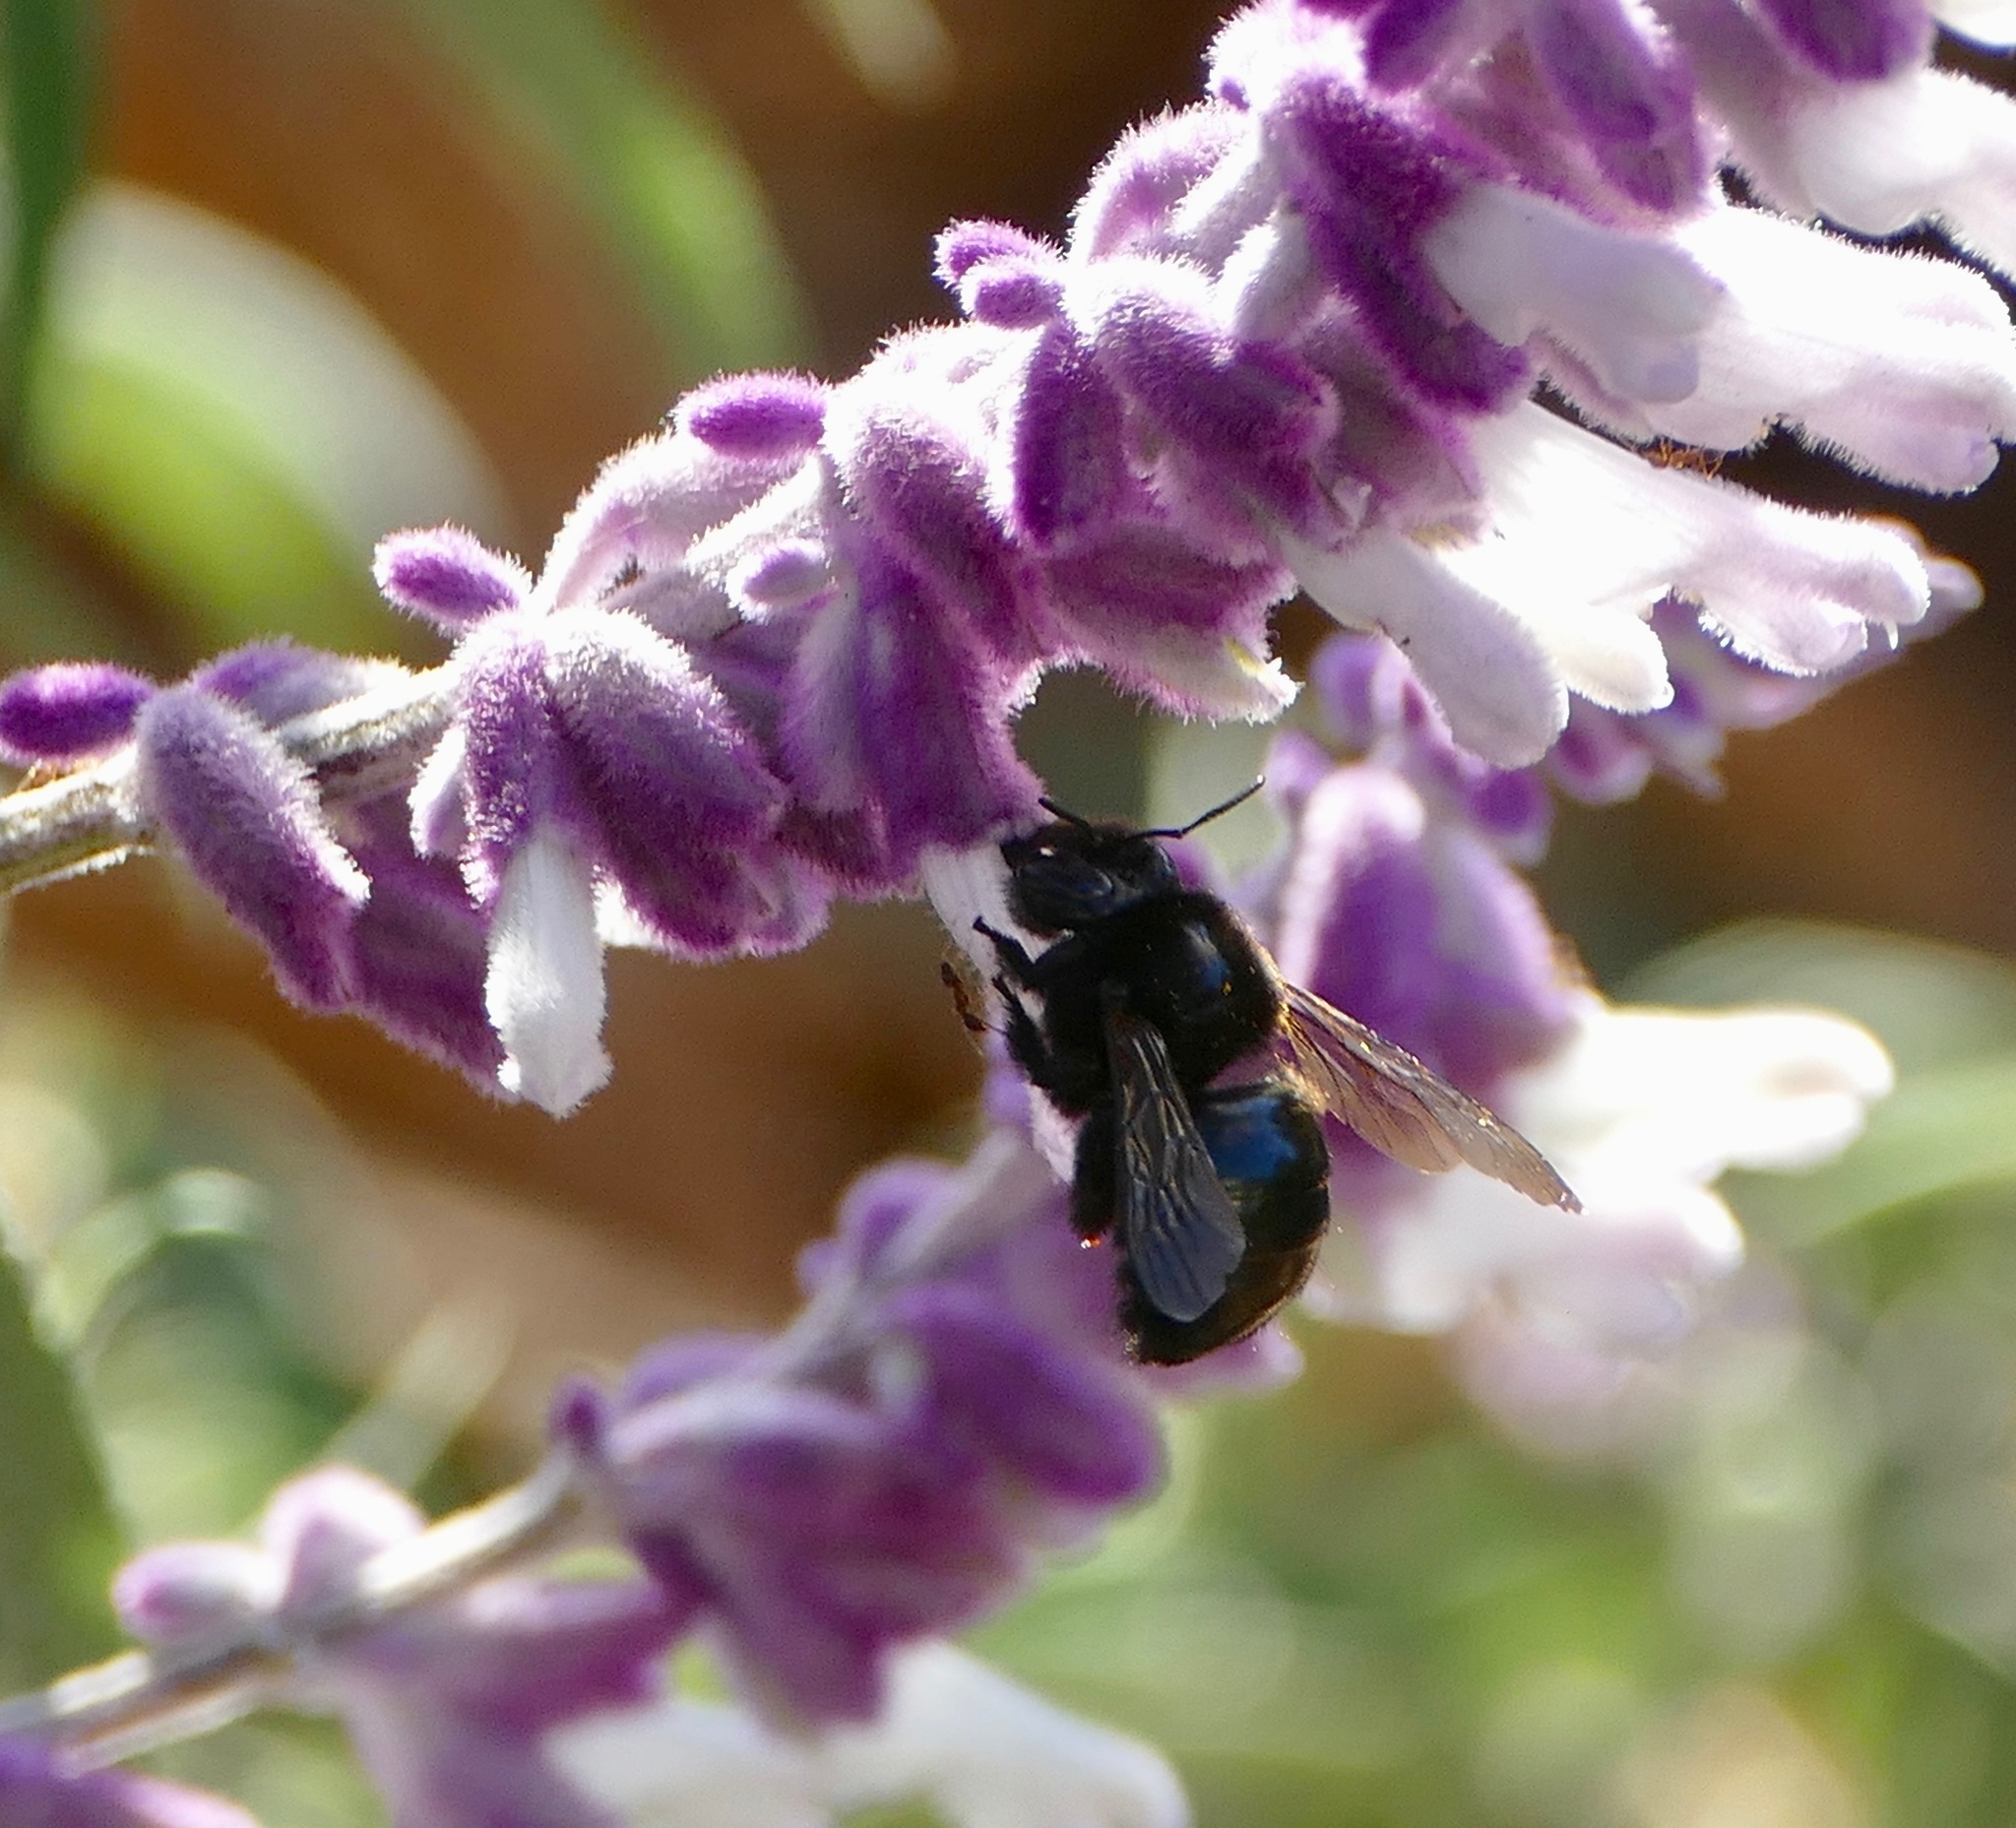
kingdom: Animalia
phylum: Arthropoda
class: Insecta
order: Hymenoptera
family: Apidae
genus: Xylocopa
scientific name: Xylocopa tabaniformis
